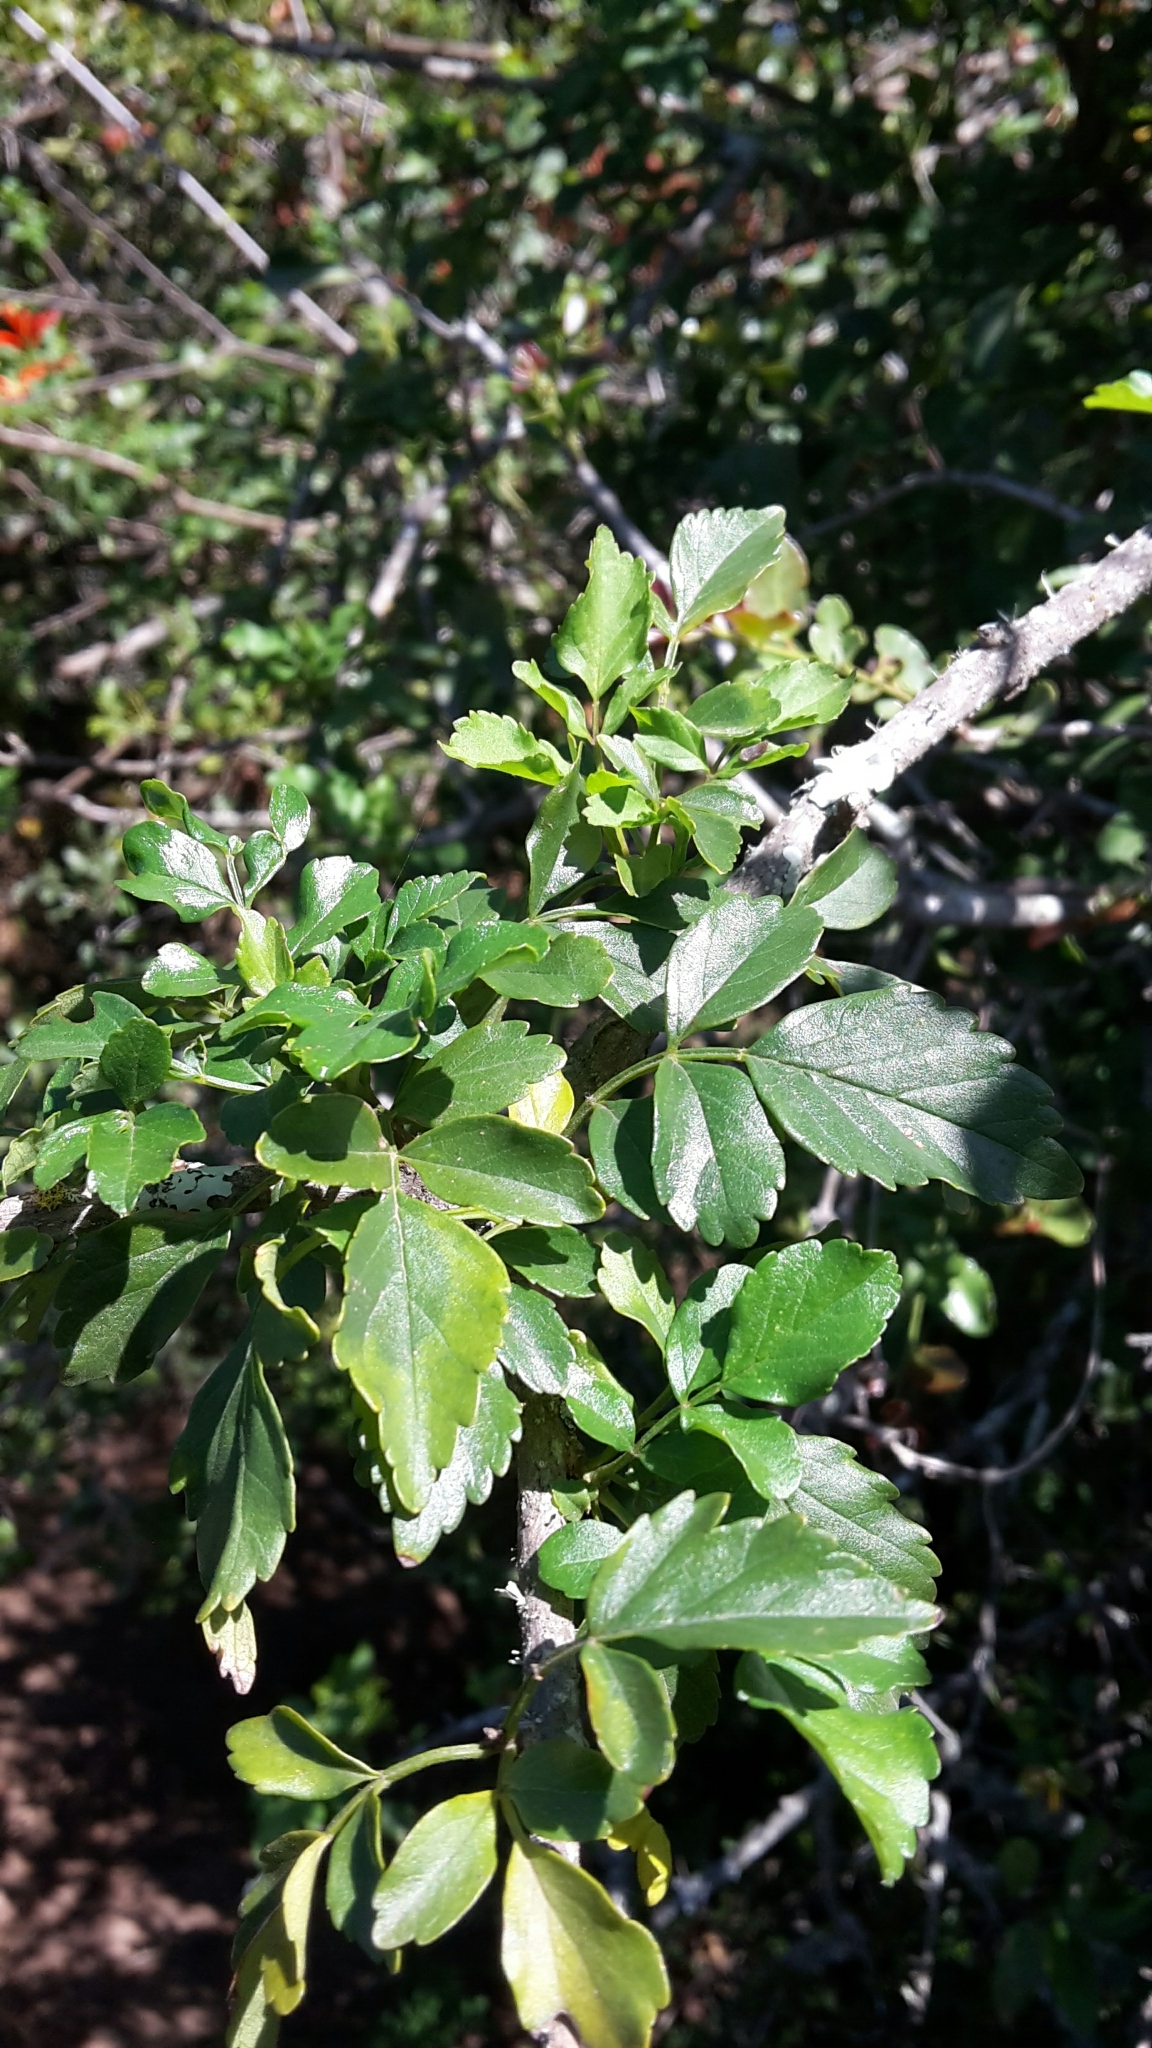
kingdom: Plantae
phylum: Tracheophyta
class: Magnoliopsida
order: Lamiales
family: Bignoniaceae
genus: Tecomaria
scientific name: Tecomaria capensis
